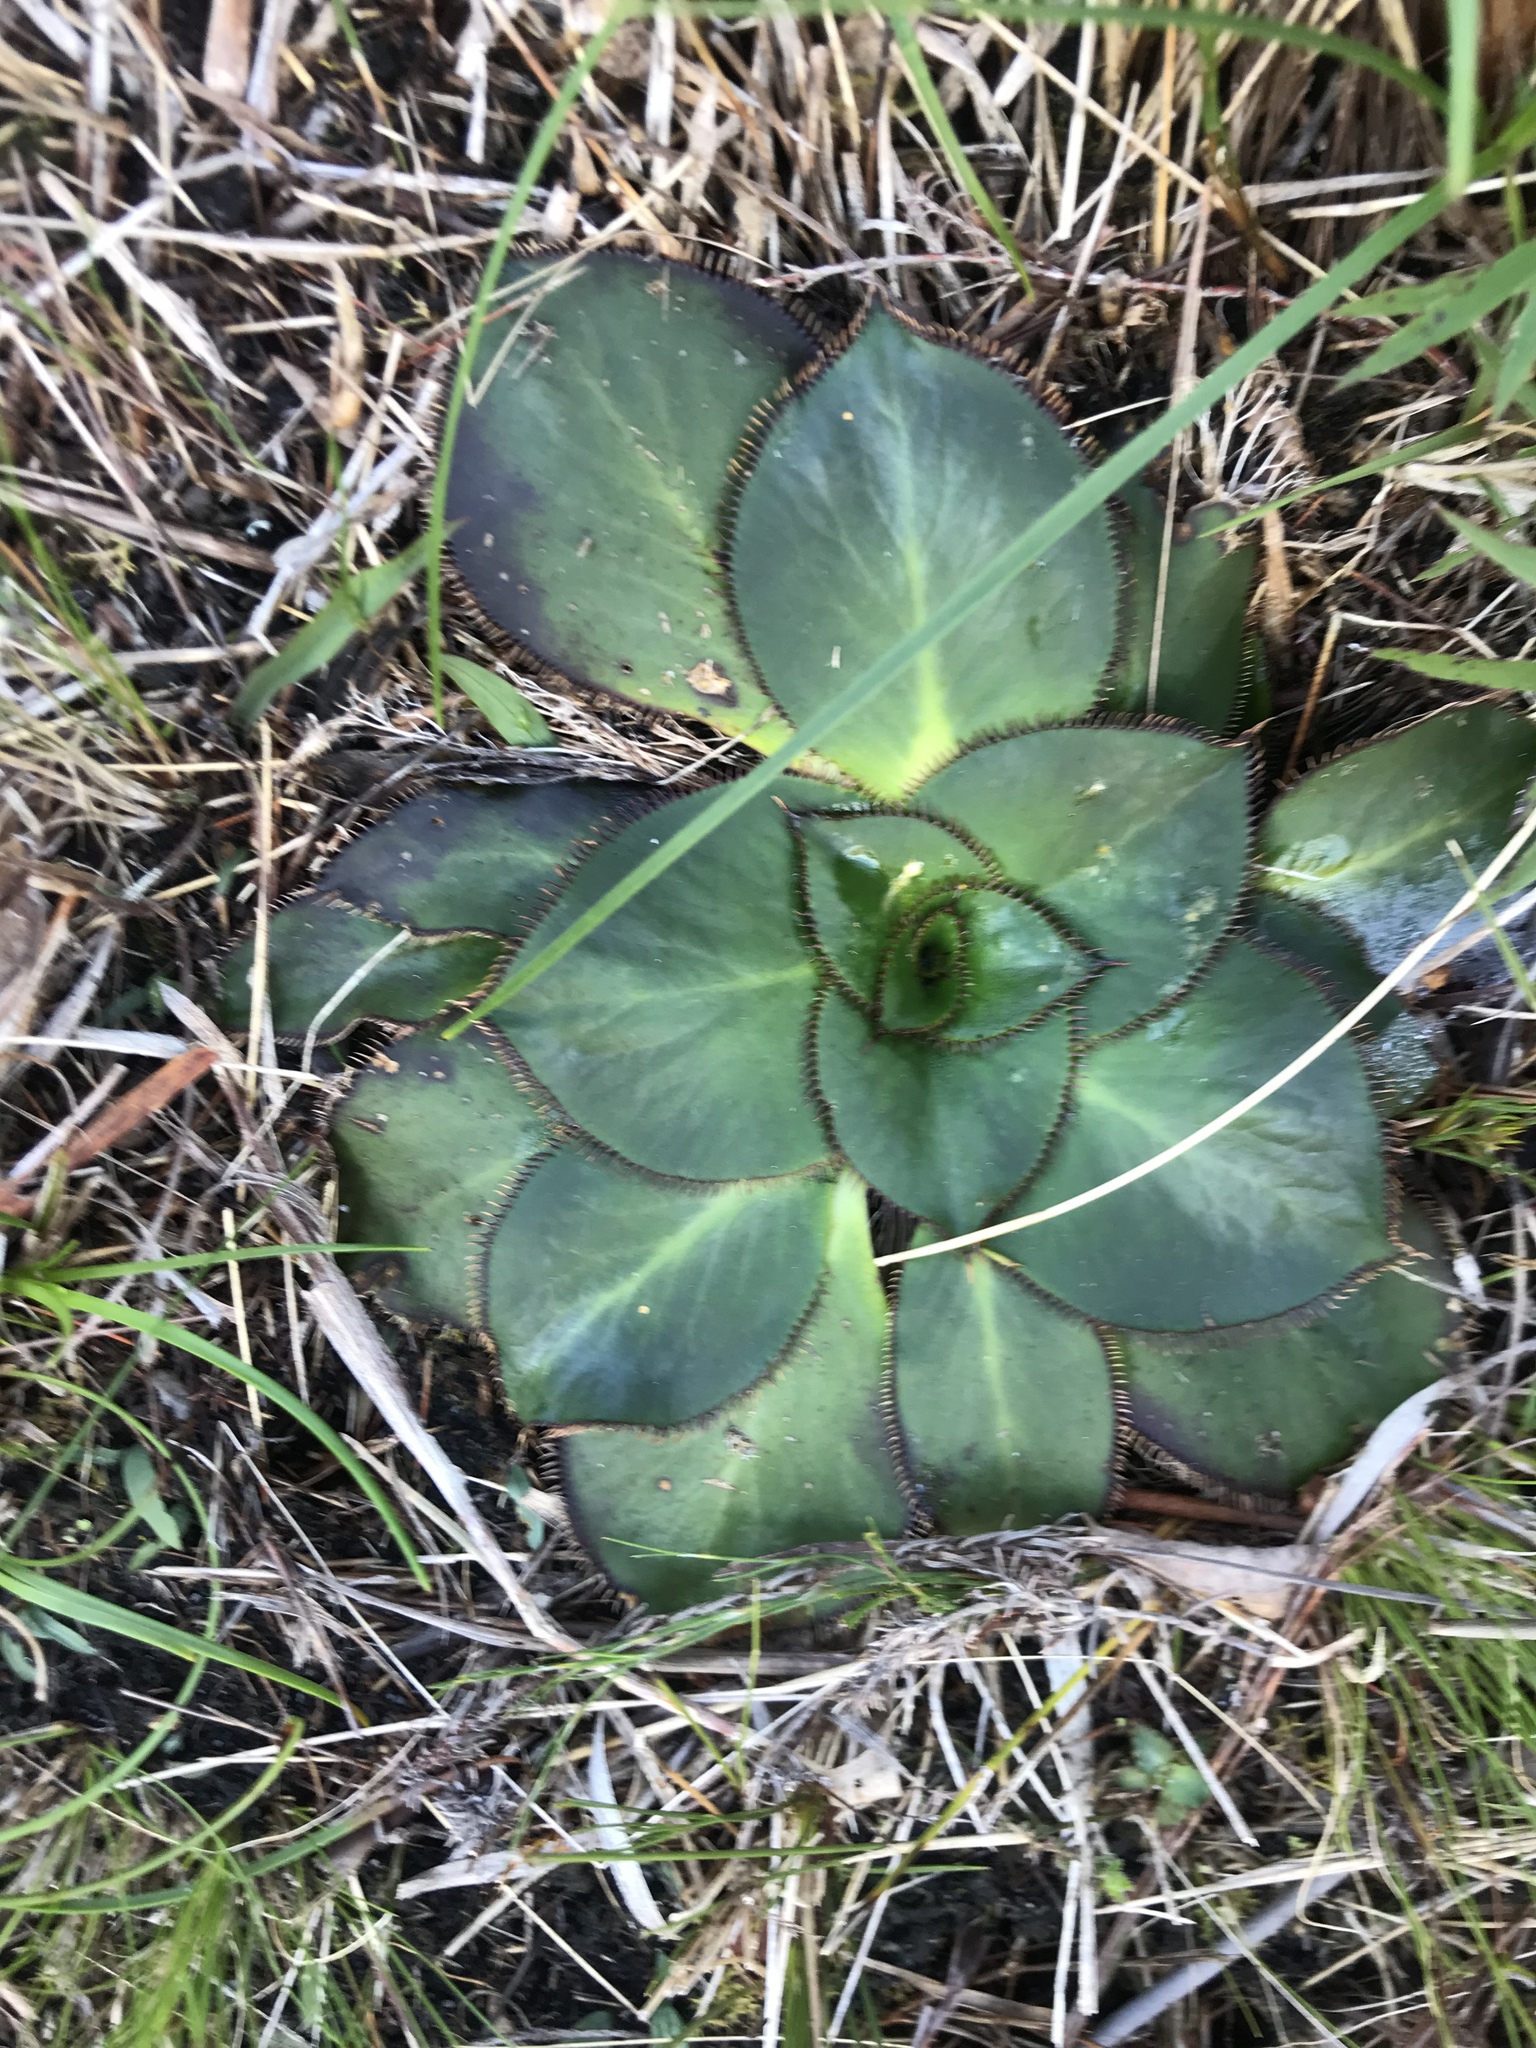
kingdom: Plantae
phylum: Tracheophyta
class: Magnoliopsida
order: Apiales
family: Apiaceae
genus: Hermas
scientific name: Hermas ciliata
